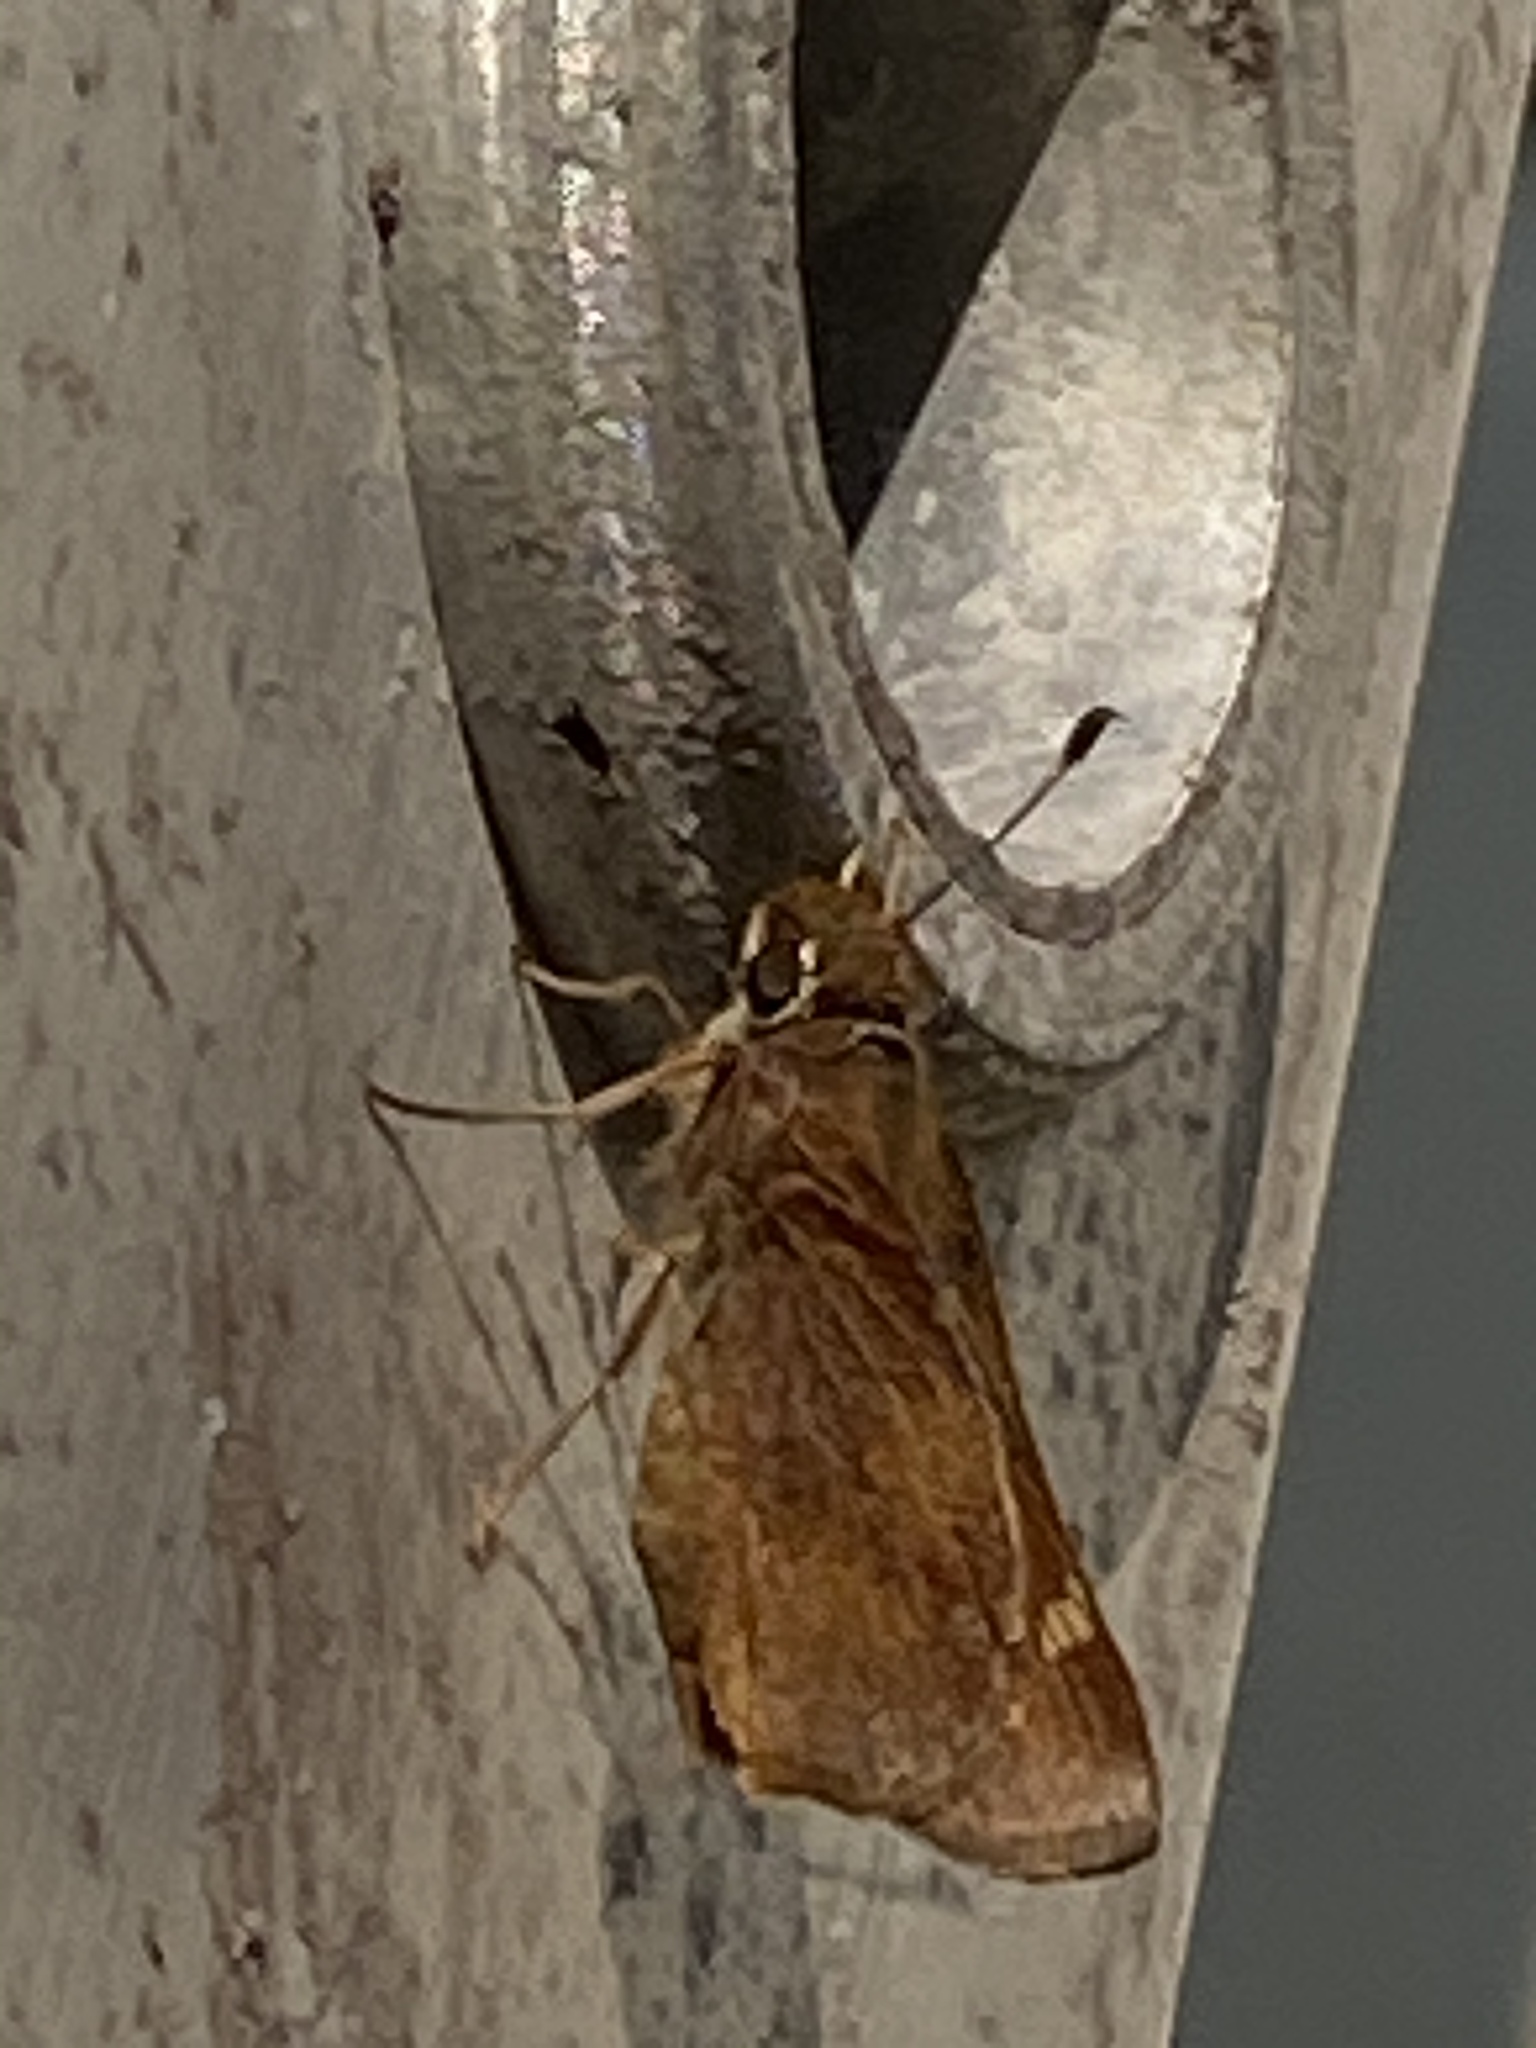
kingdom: Animalia
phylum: Arthropoda
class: Insecta
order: Lepidoptera
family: Hesperiidae
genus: Lon
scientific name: Lon melane
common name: Umber skipper
